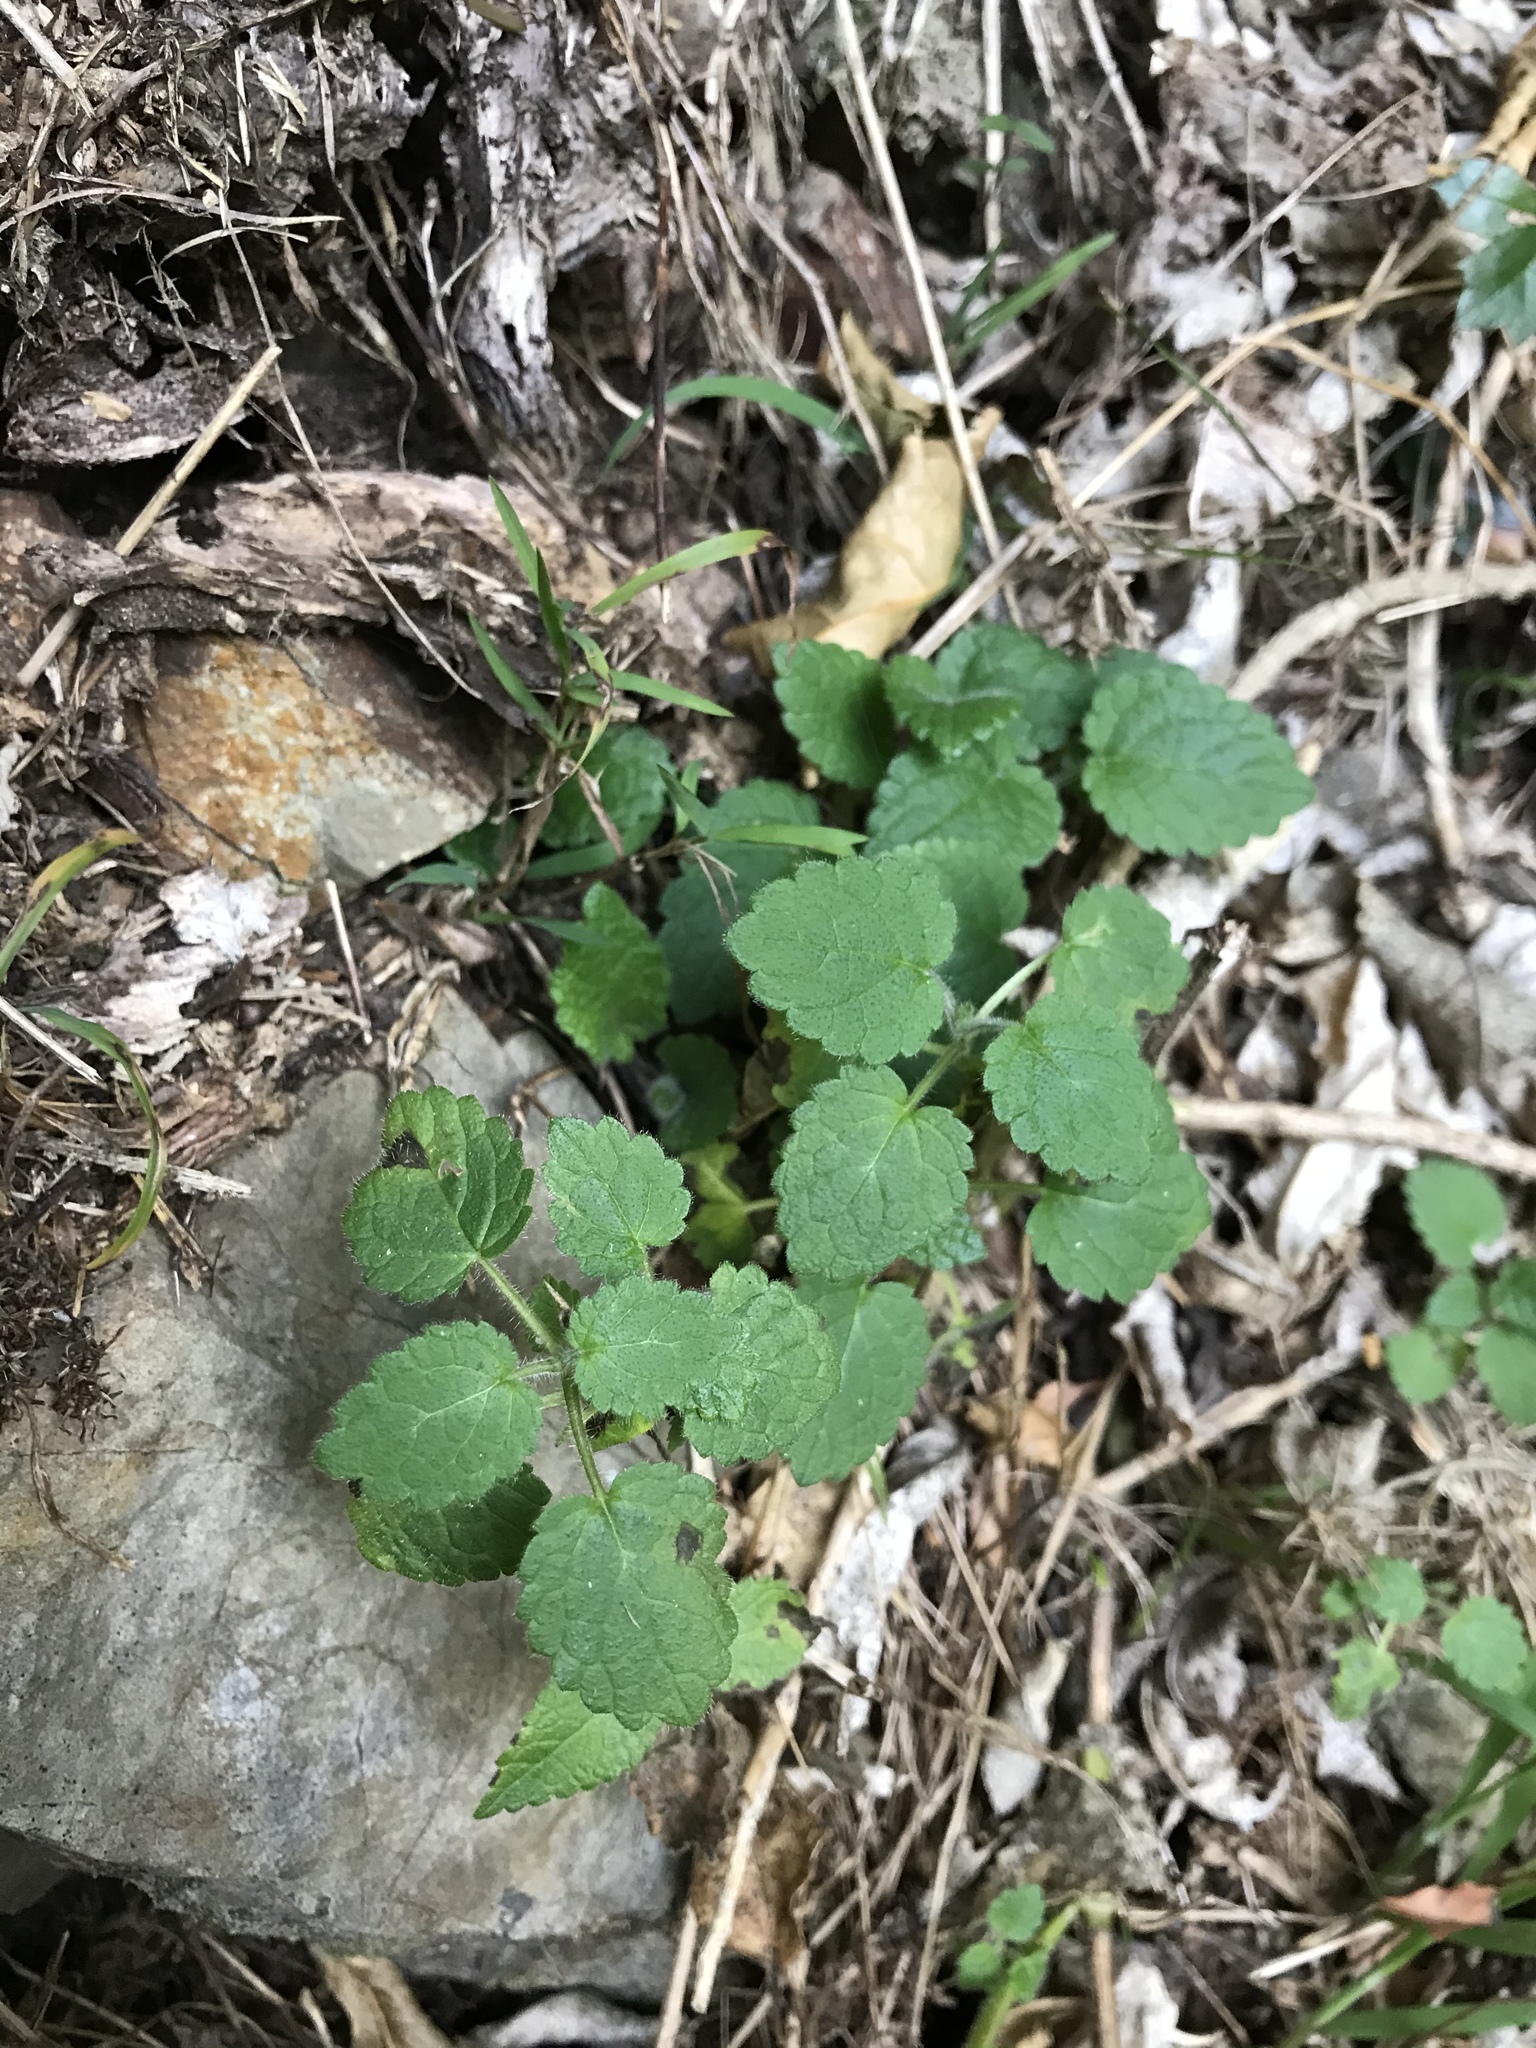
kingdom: Plantae
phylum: Tracheophyta
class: Magnoliopsida
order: Lamiales
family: Lamiaceae
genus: Stachys
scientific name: Stachys sylvatica
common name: Hedge woundwort
